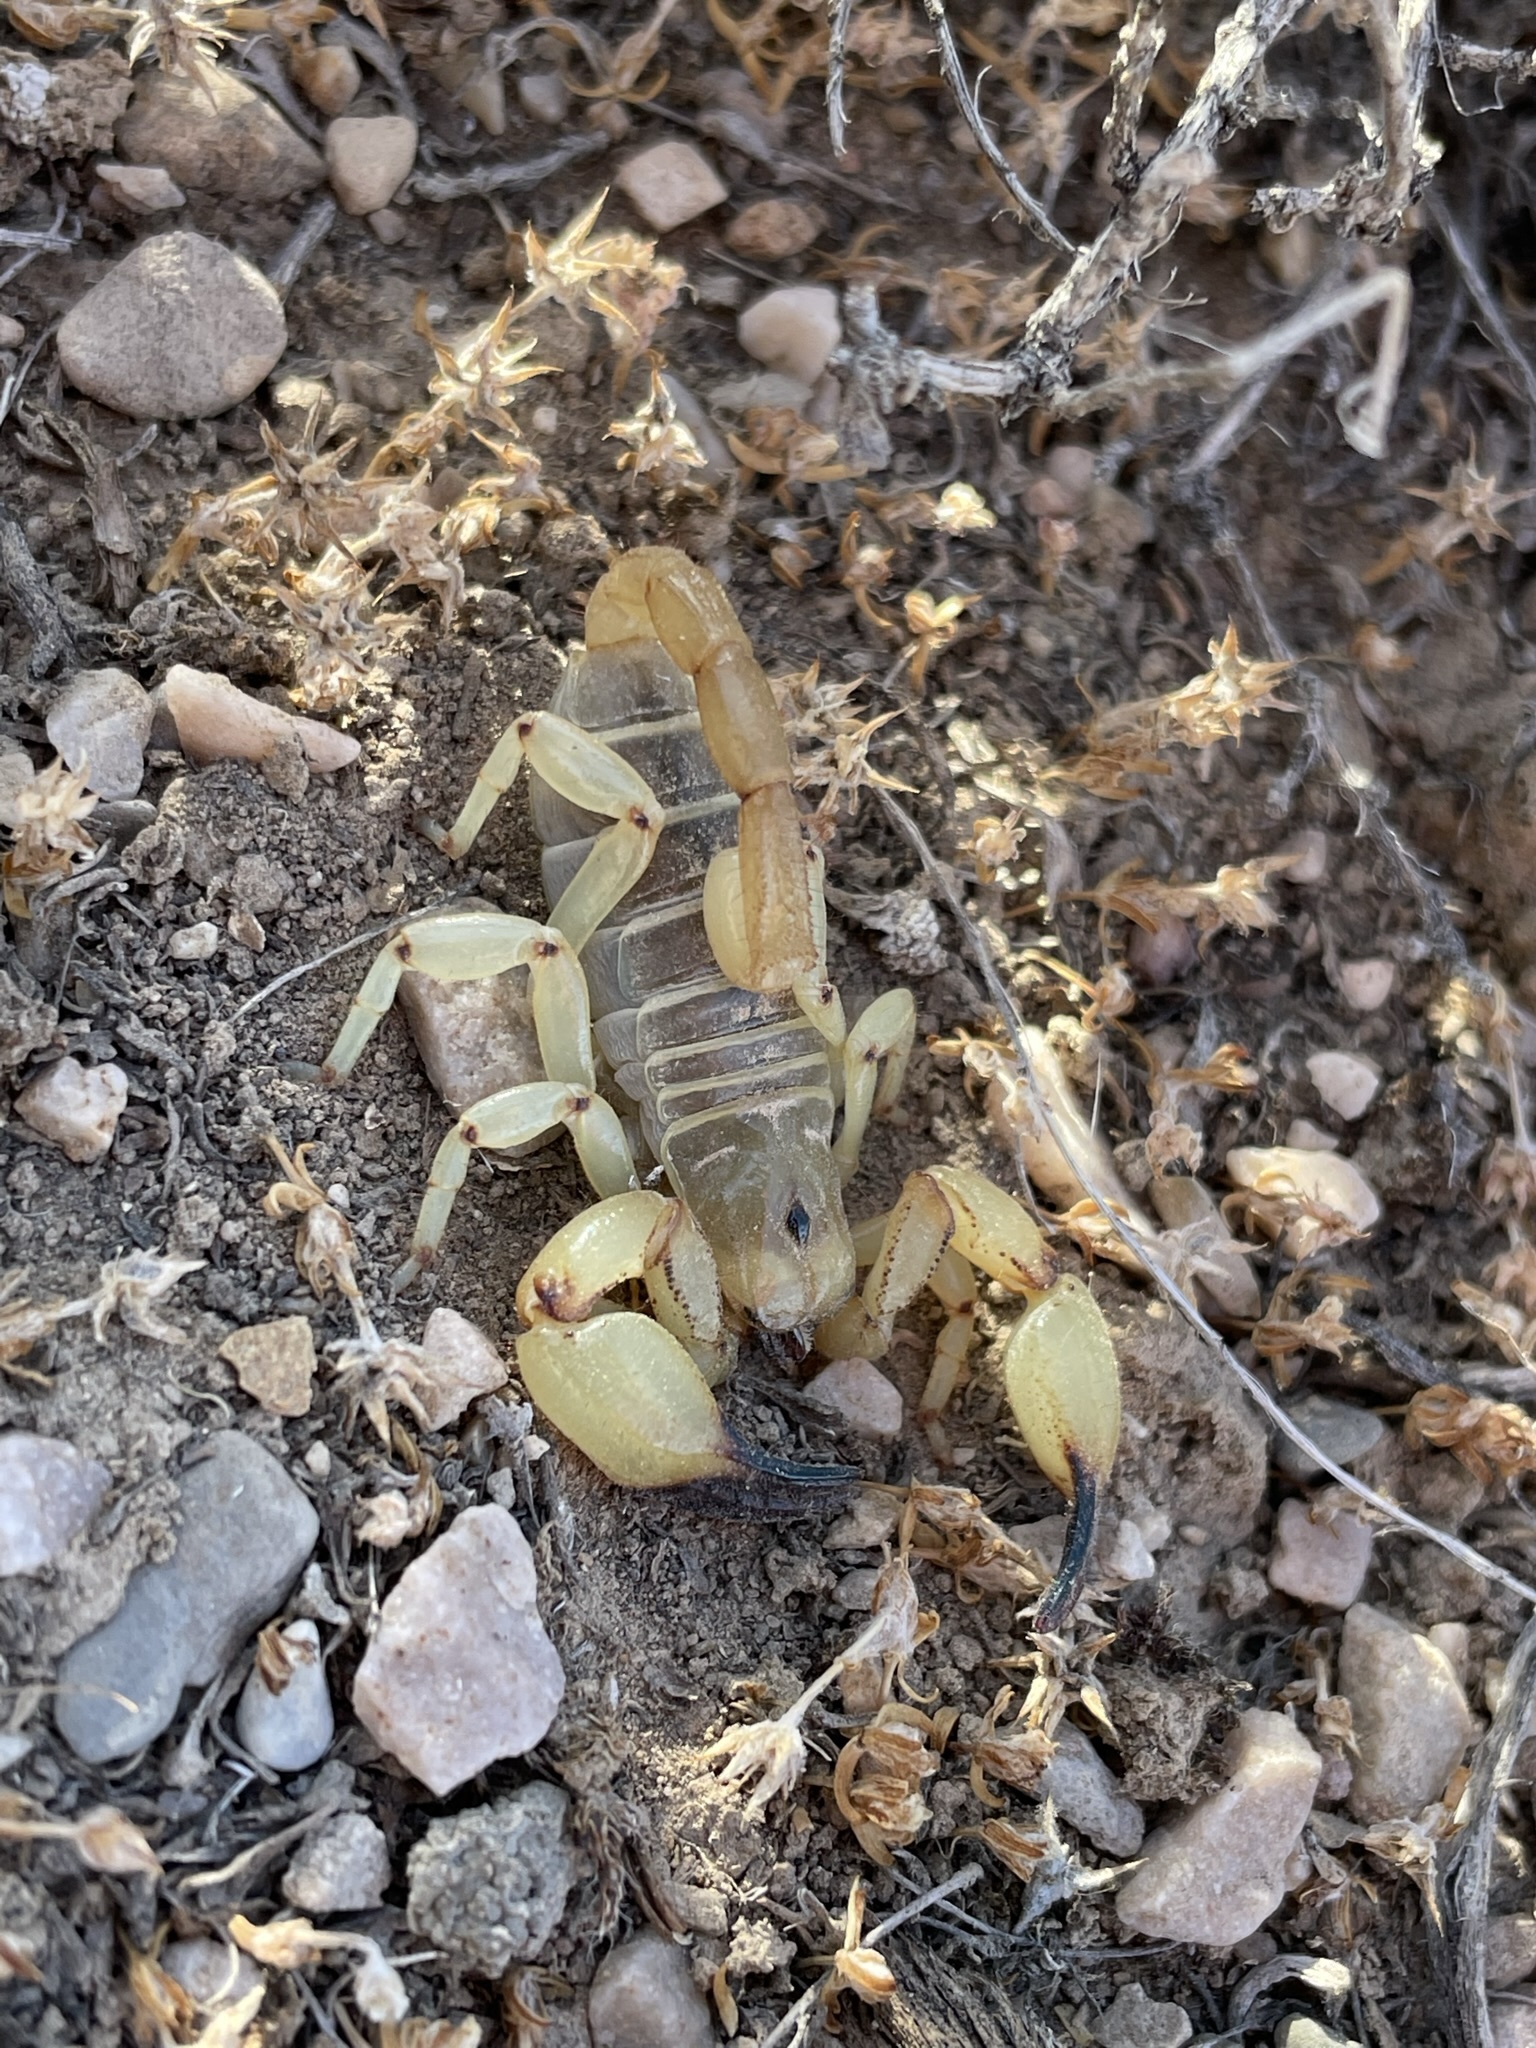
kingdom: Animalia
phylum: Arthropoda
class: Arachnida
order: Scorpiones
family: Chactidae
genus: Anuroctonus
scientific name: Anuroctonus phaiodactylus
